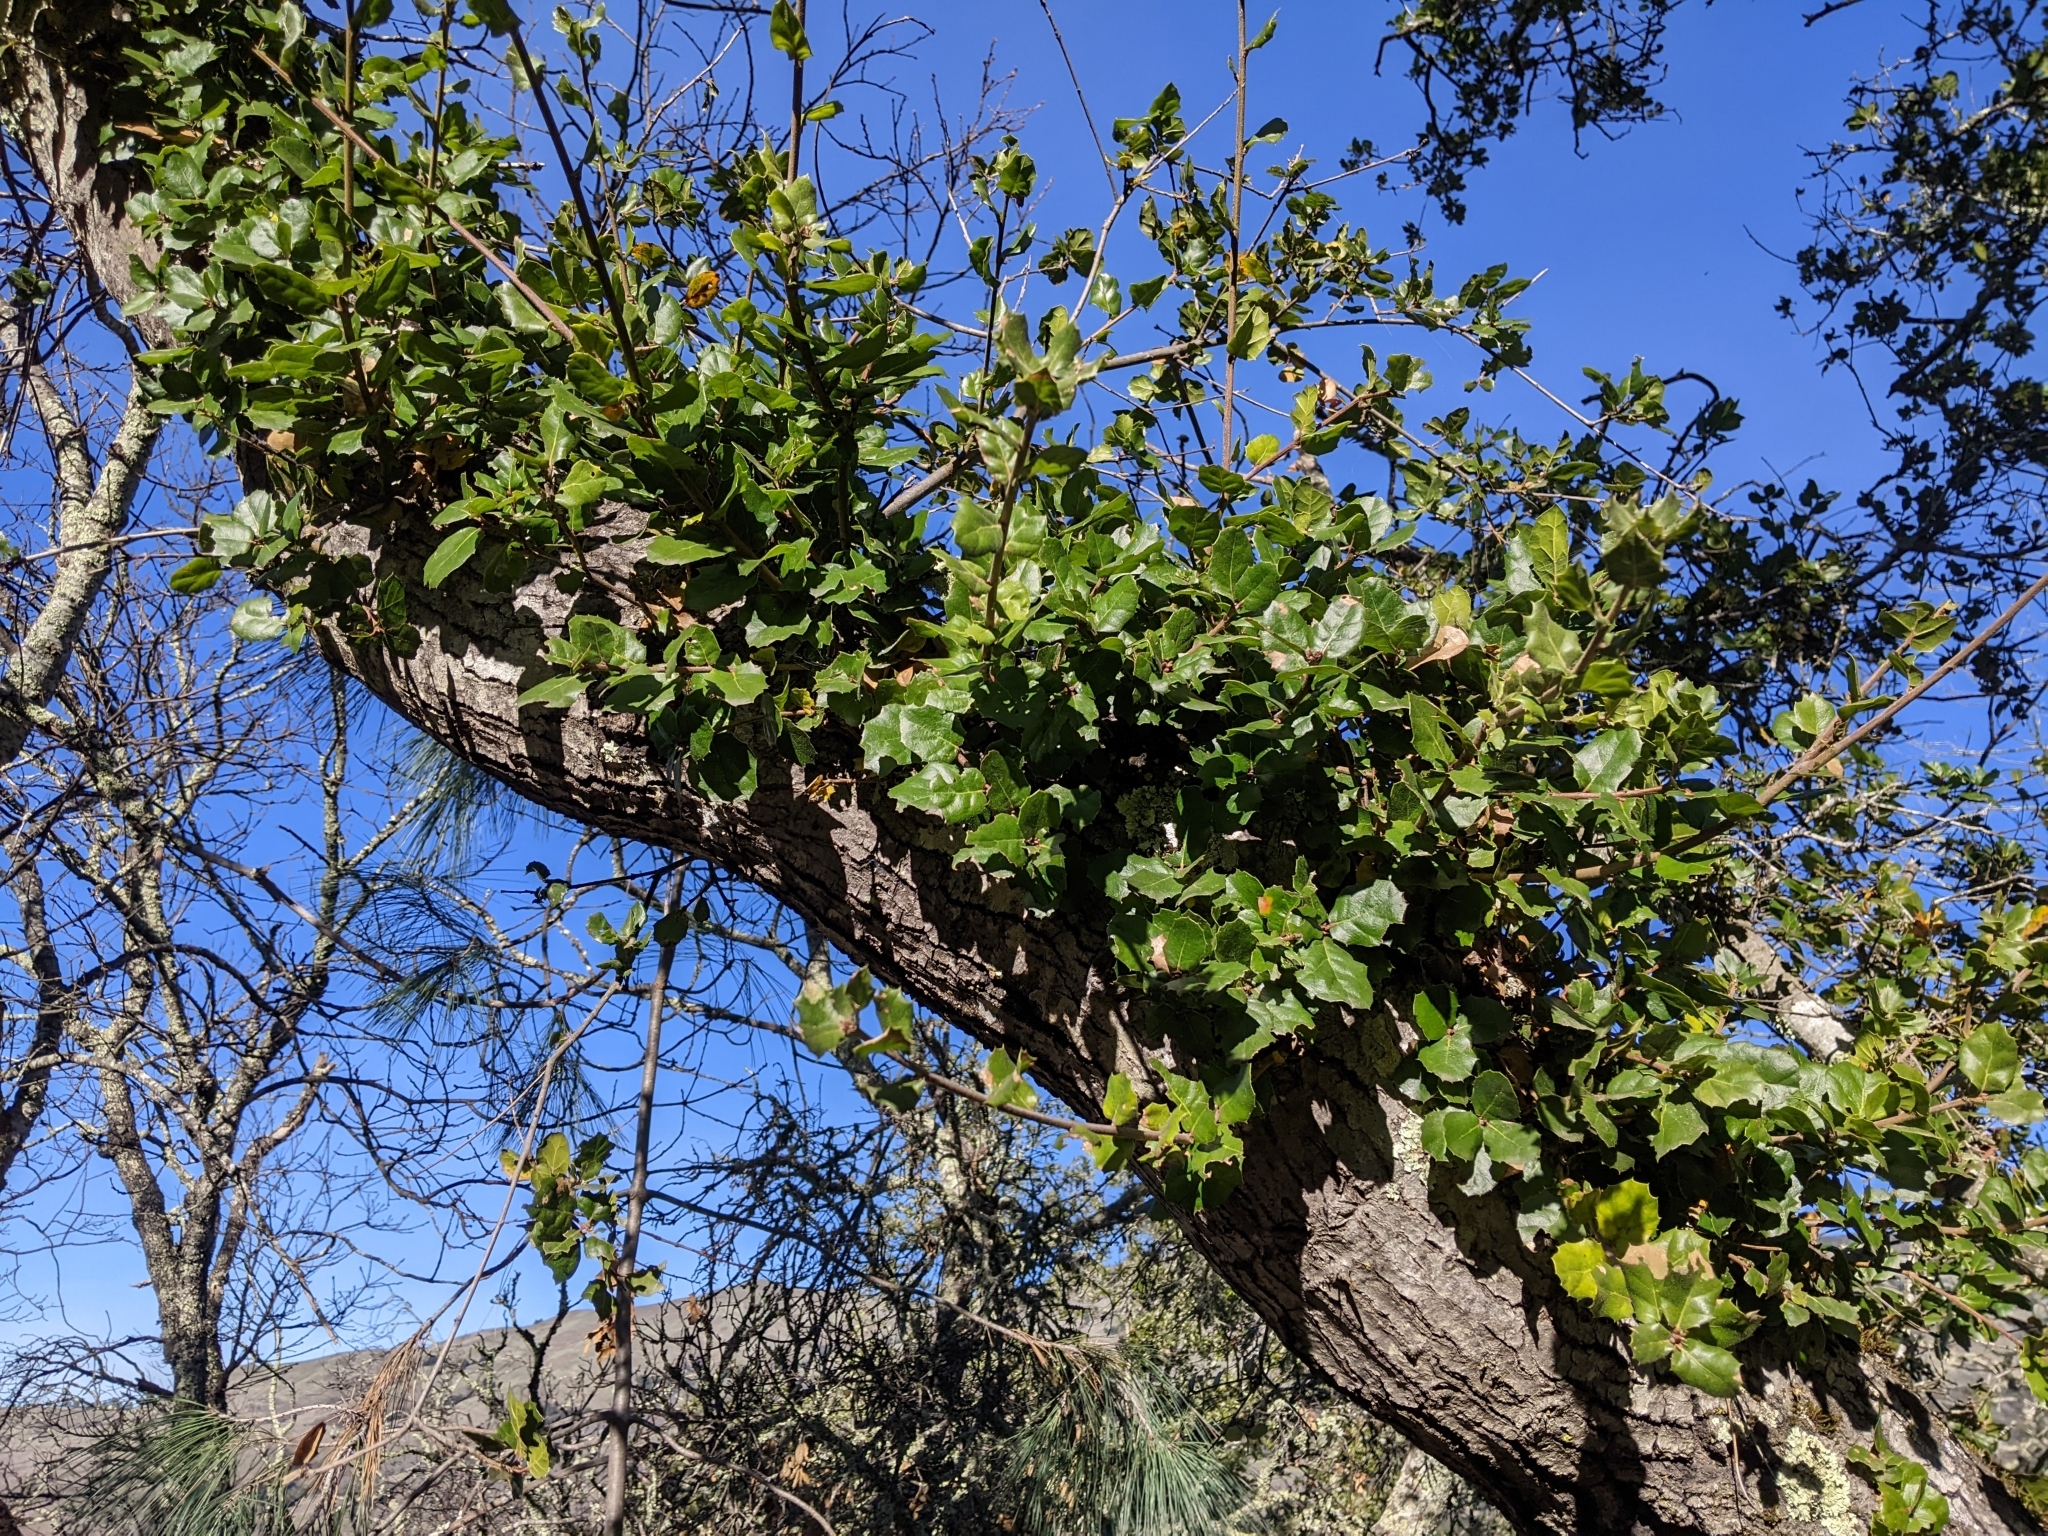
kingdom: Plantae
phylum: Tracheophyta
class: Magnoliopsida
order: Fagales
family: Fagaceae
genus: Quercus
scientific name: Quercus agrifolia
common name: California live oak
